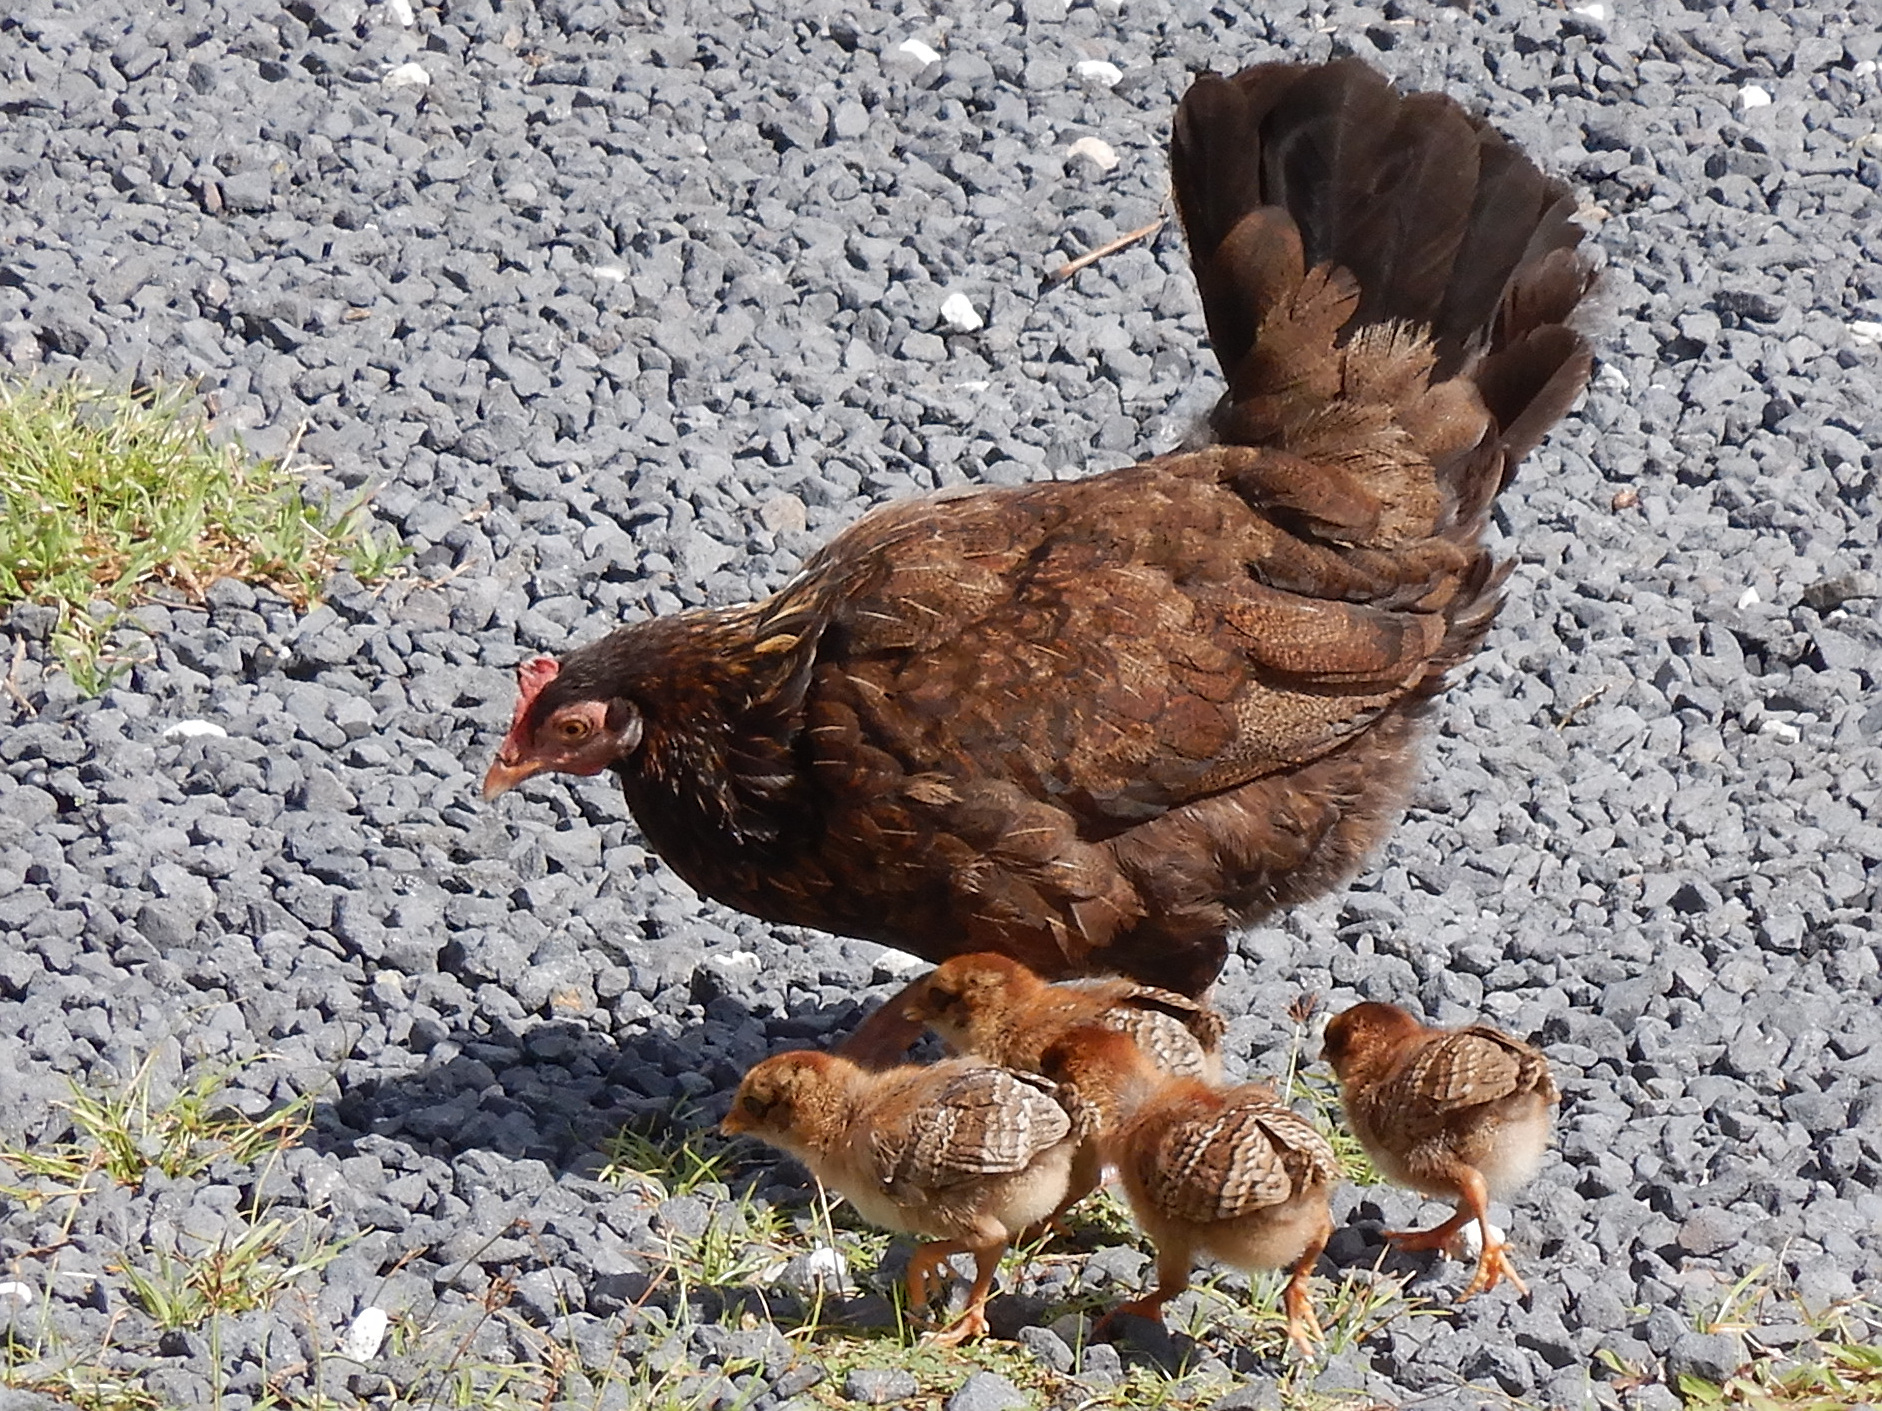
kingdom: Animalia
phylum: Chordata
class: Aves
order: Galliformes
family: Phasianidae
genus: Gallus
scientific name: Gallus gallus
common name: Red junglefowl
